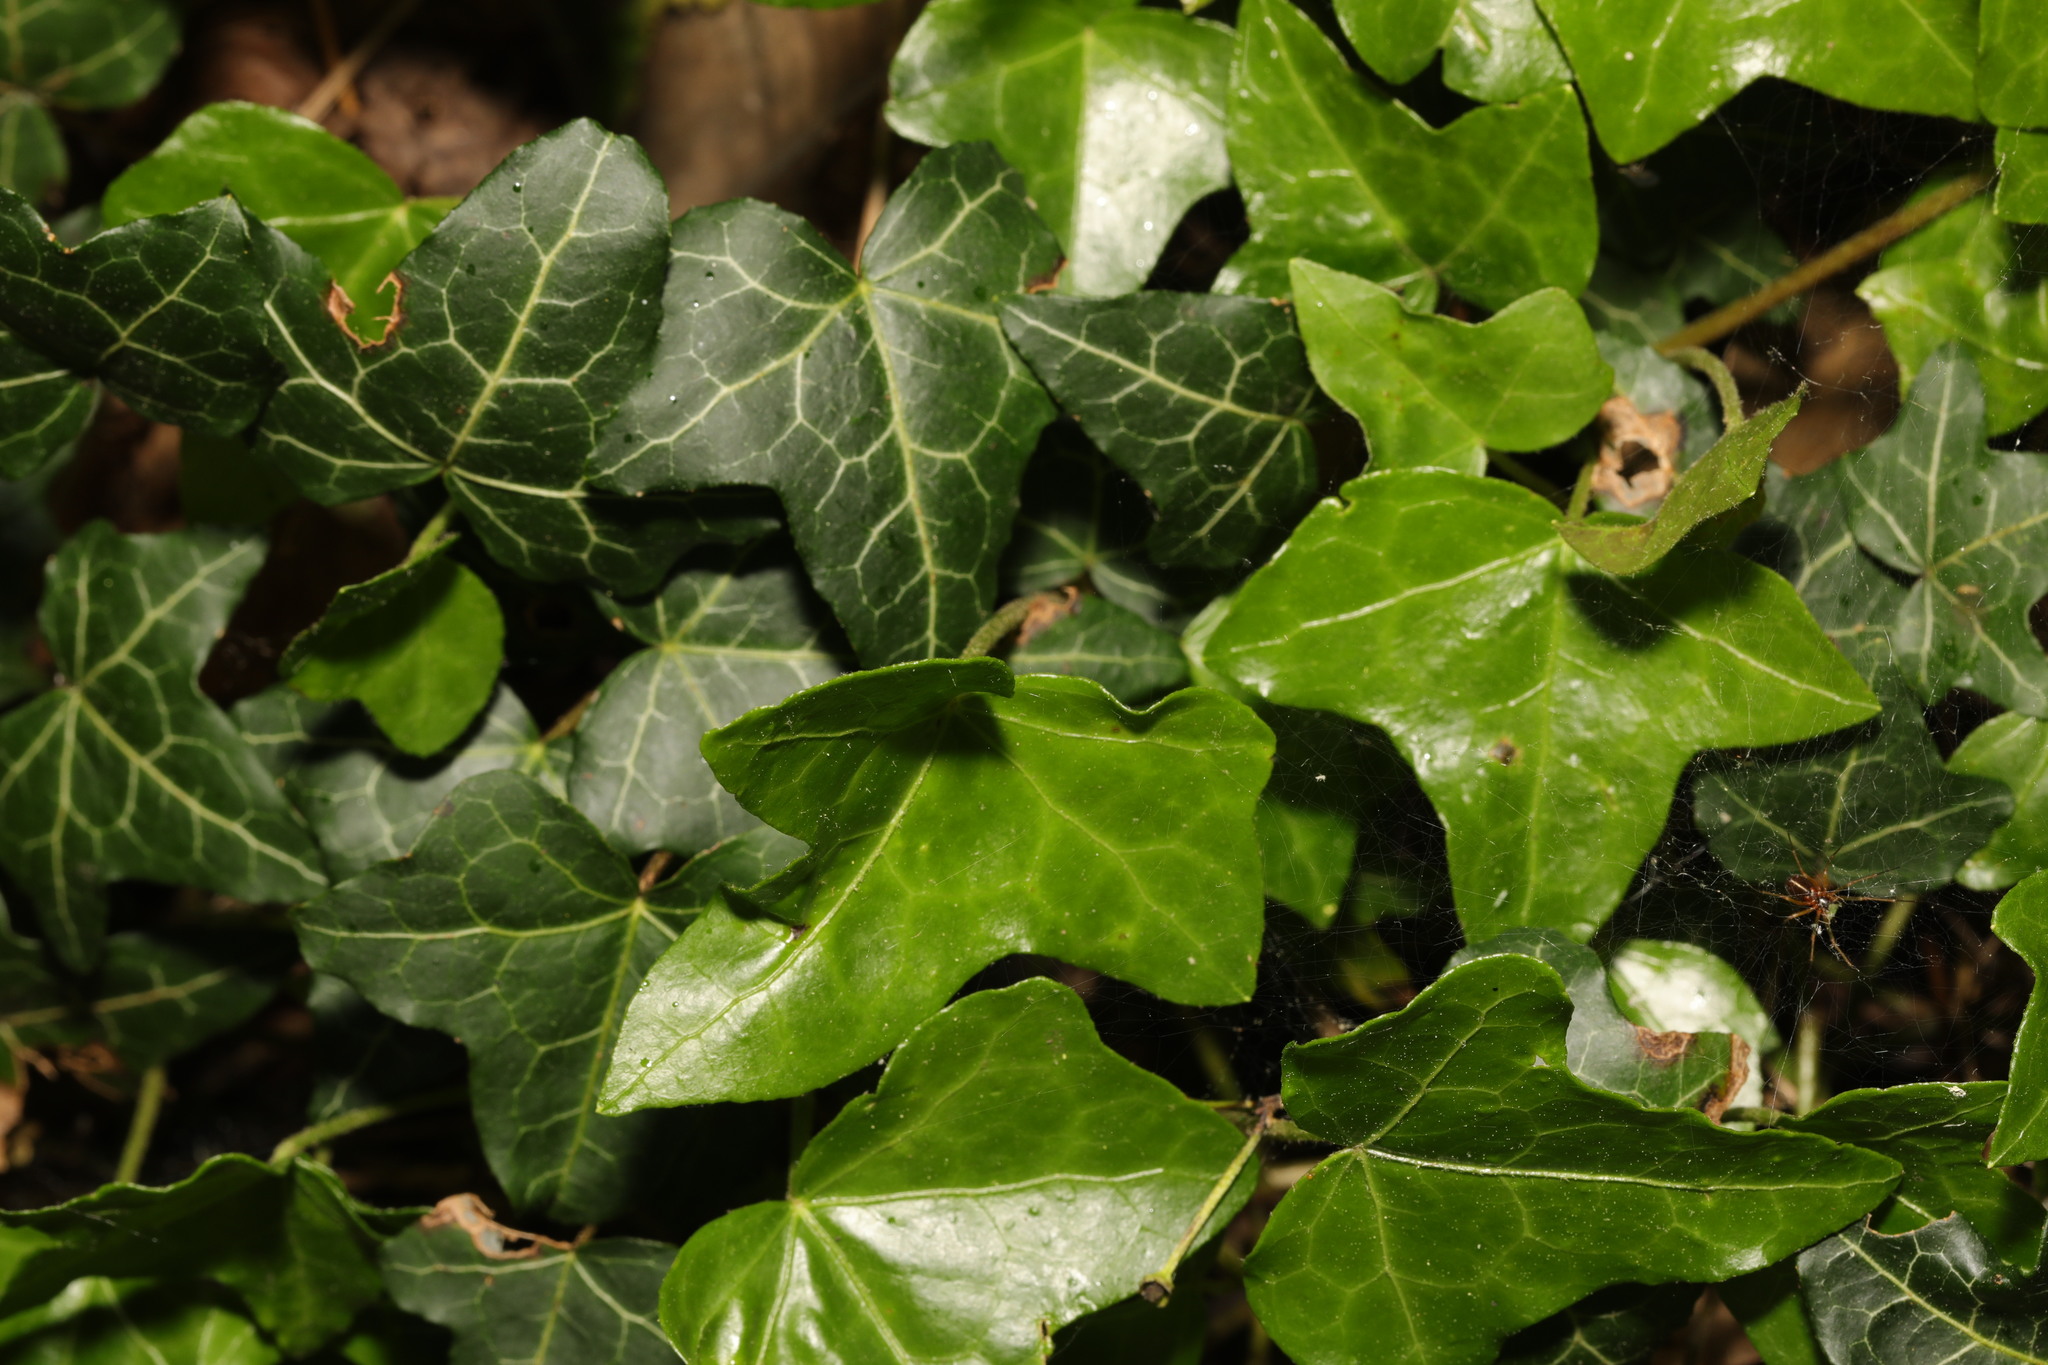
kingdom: Plantae
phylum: Tracheophyta
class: Magnoliopsida
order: Apiales
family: Araliaceae
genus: Hedera
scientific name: Hedera helix
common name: Ivy
